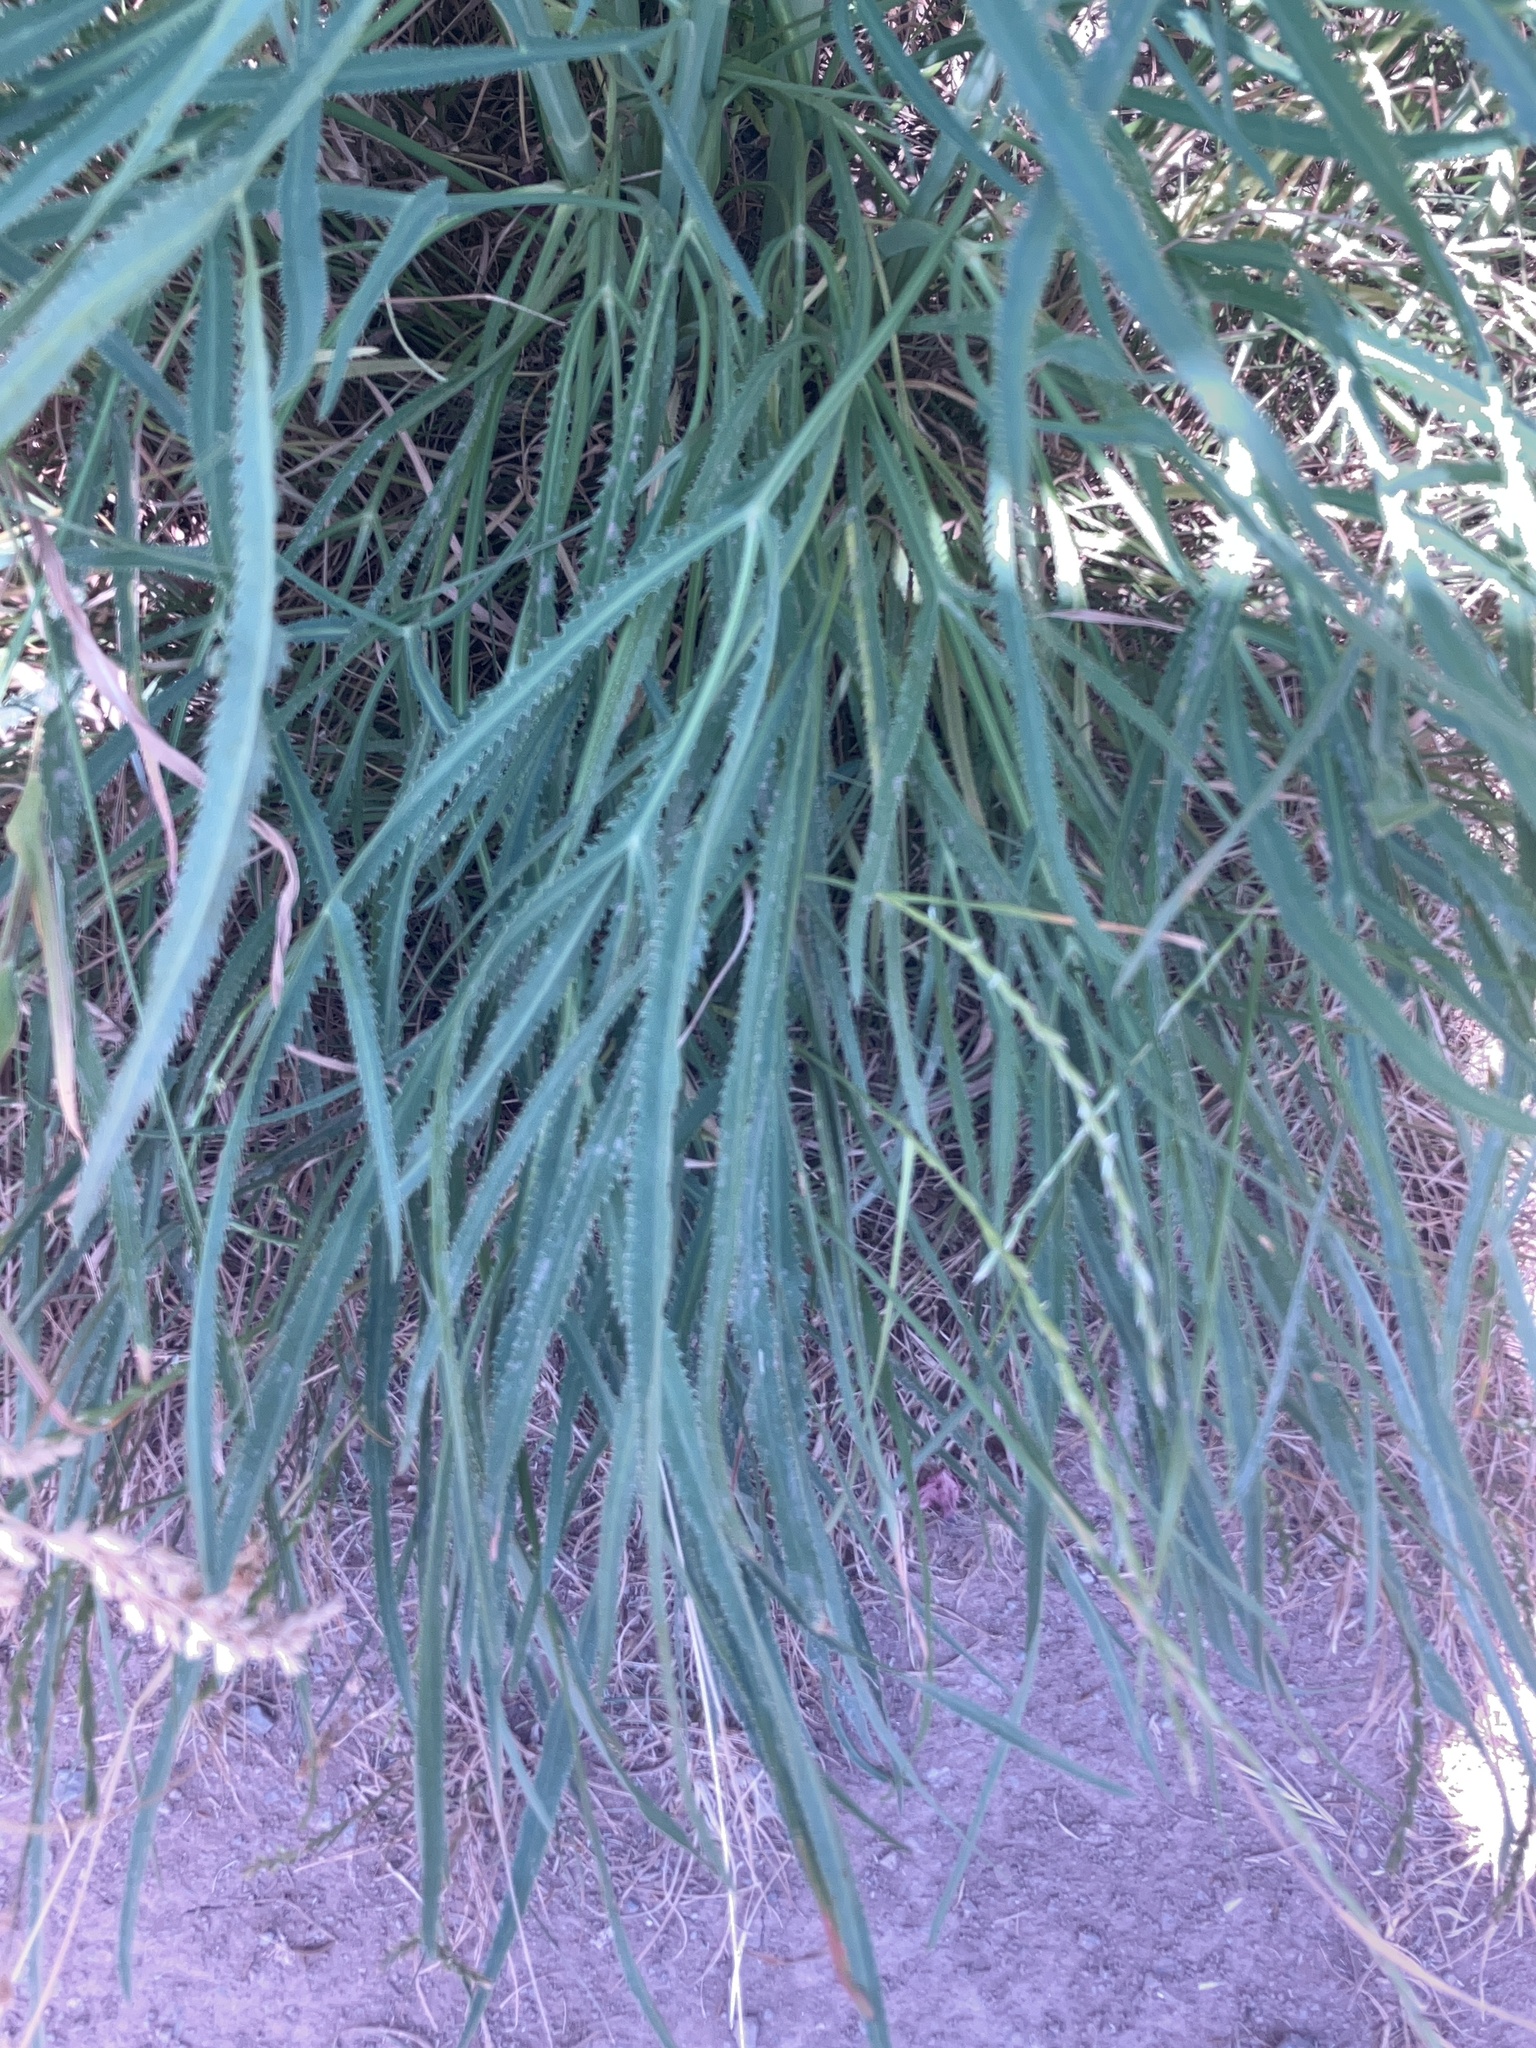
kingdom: Plantae
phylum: Tracheophyta
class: Magnoliopsida
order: Apiales
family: Apiaceae
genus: Falcaria
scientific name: Falcaria vulgaris
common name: Longleaf
